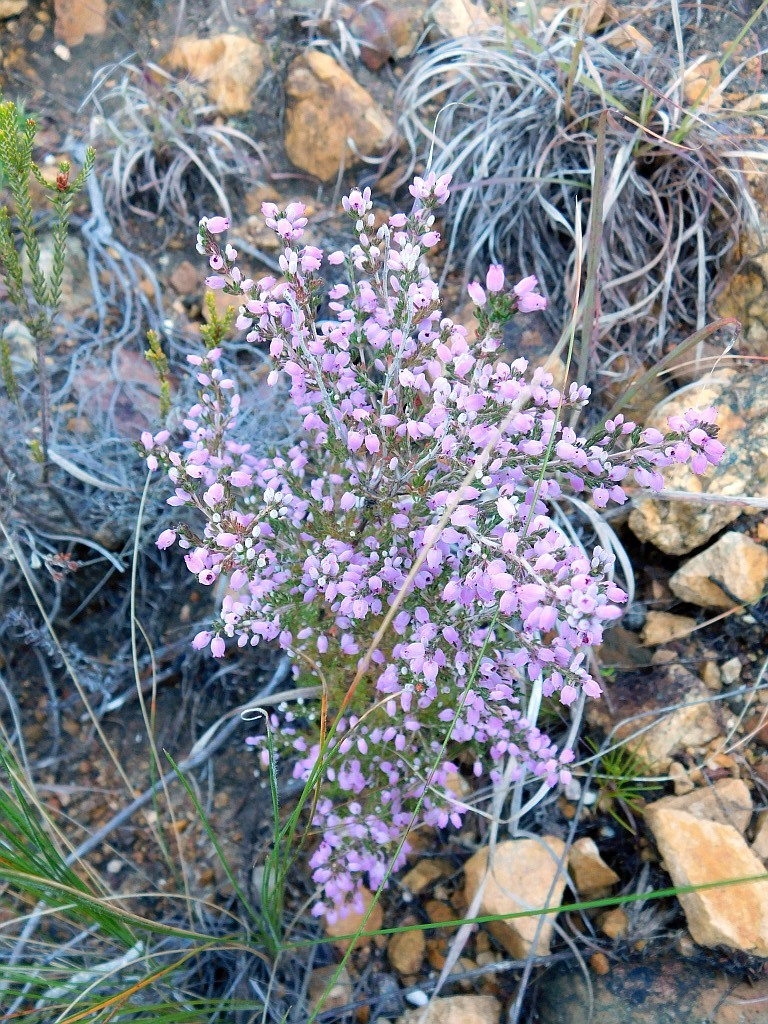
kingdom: Plantae
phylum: Tracheophyta
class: Magnoliopsida
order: Ericales
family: Ericaceae
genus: Erica
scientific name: Erica hirtiflora
